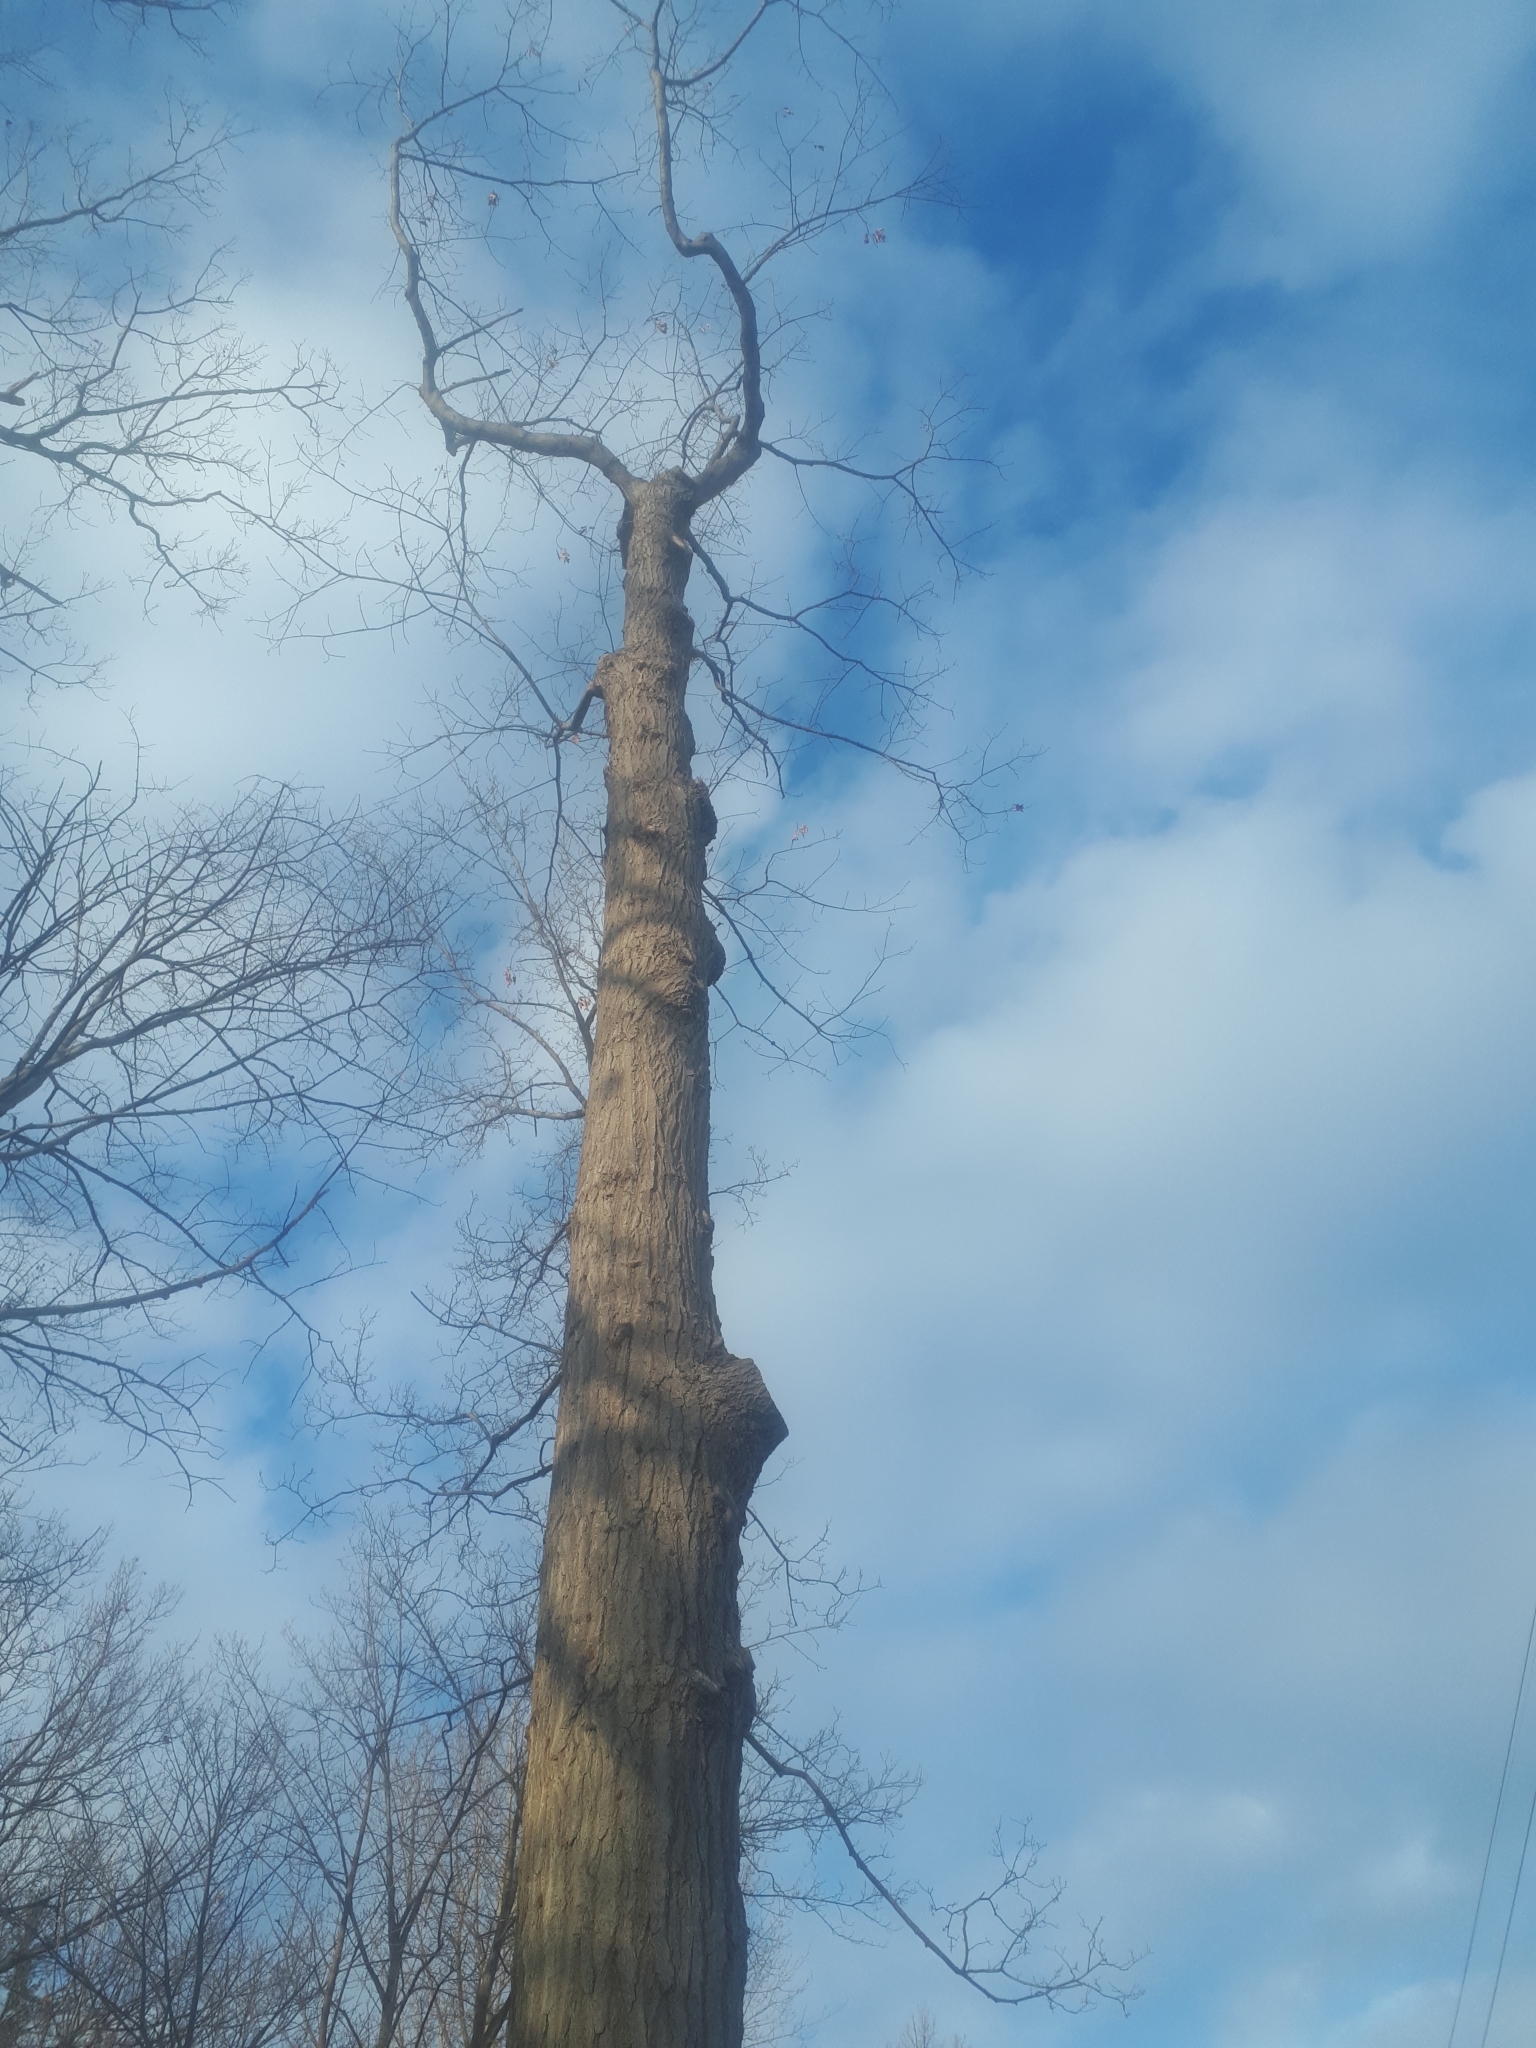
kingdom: Plantae
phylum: Tracheophyta
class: Magnoliopsida
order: Fagales
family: Fagaceae
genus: Quercus
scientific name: Quercus rubra
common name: Red oak
